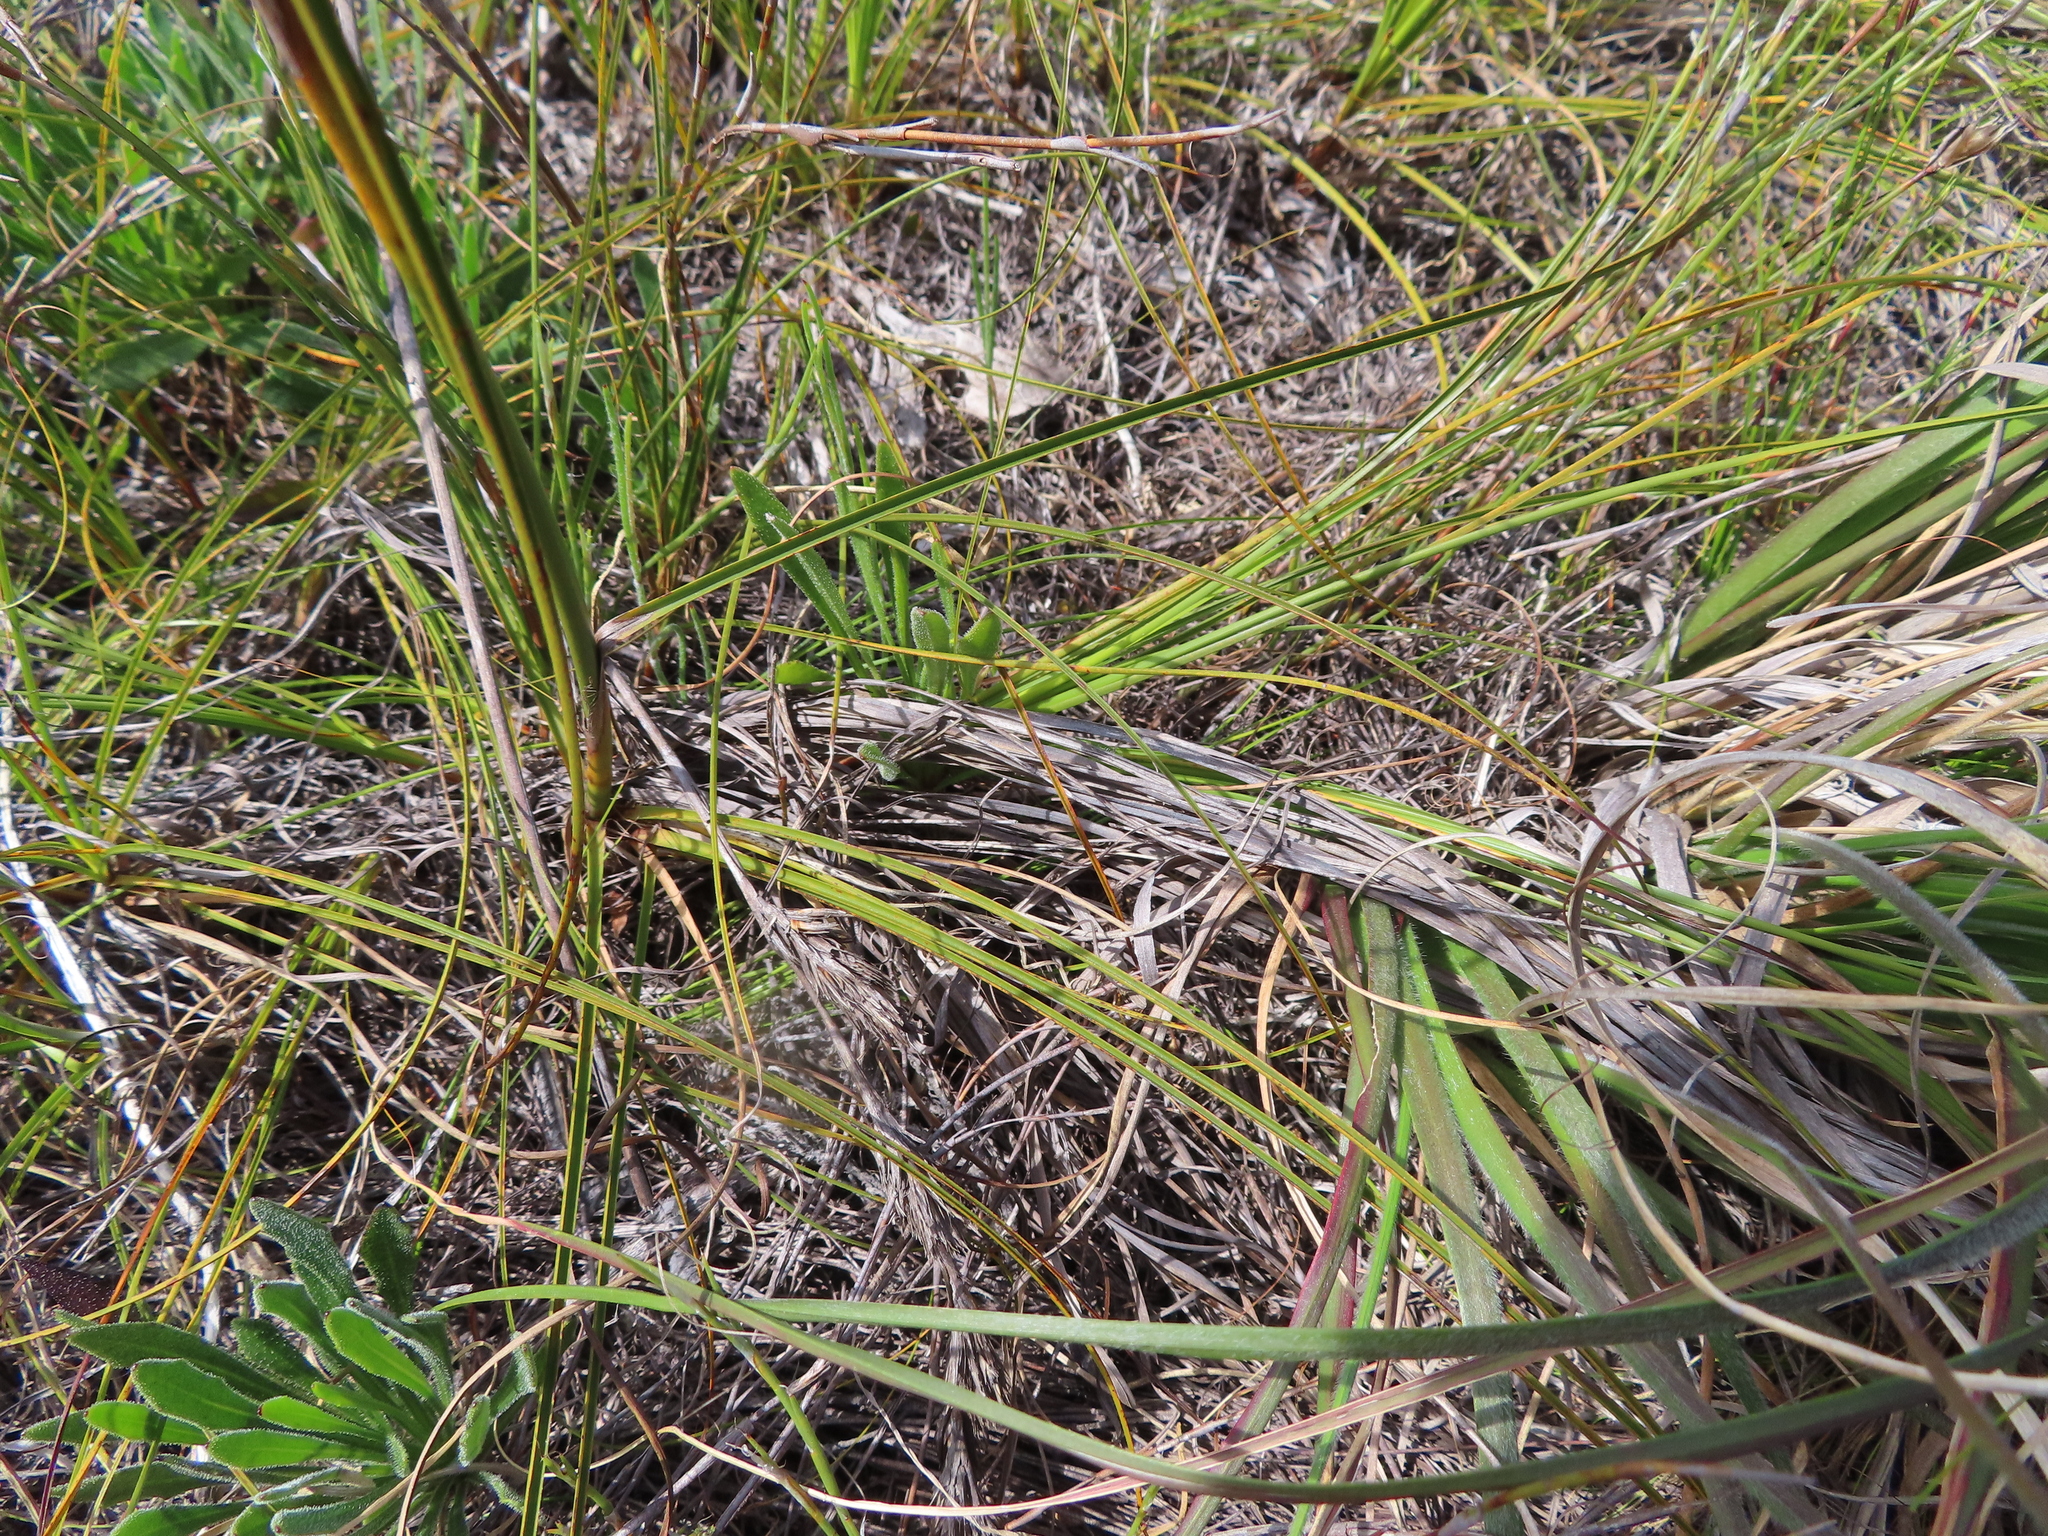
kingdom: Plantae
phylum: Tracheophyta
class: Liliopsida
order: Poales
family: Cyperaceae
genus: Tetraria
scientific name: Tetraria bromoides
